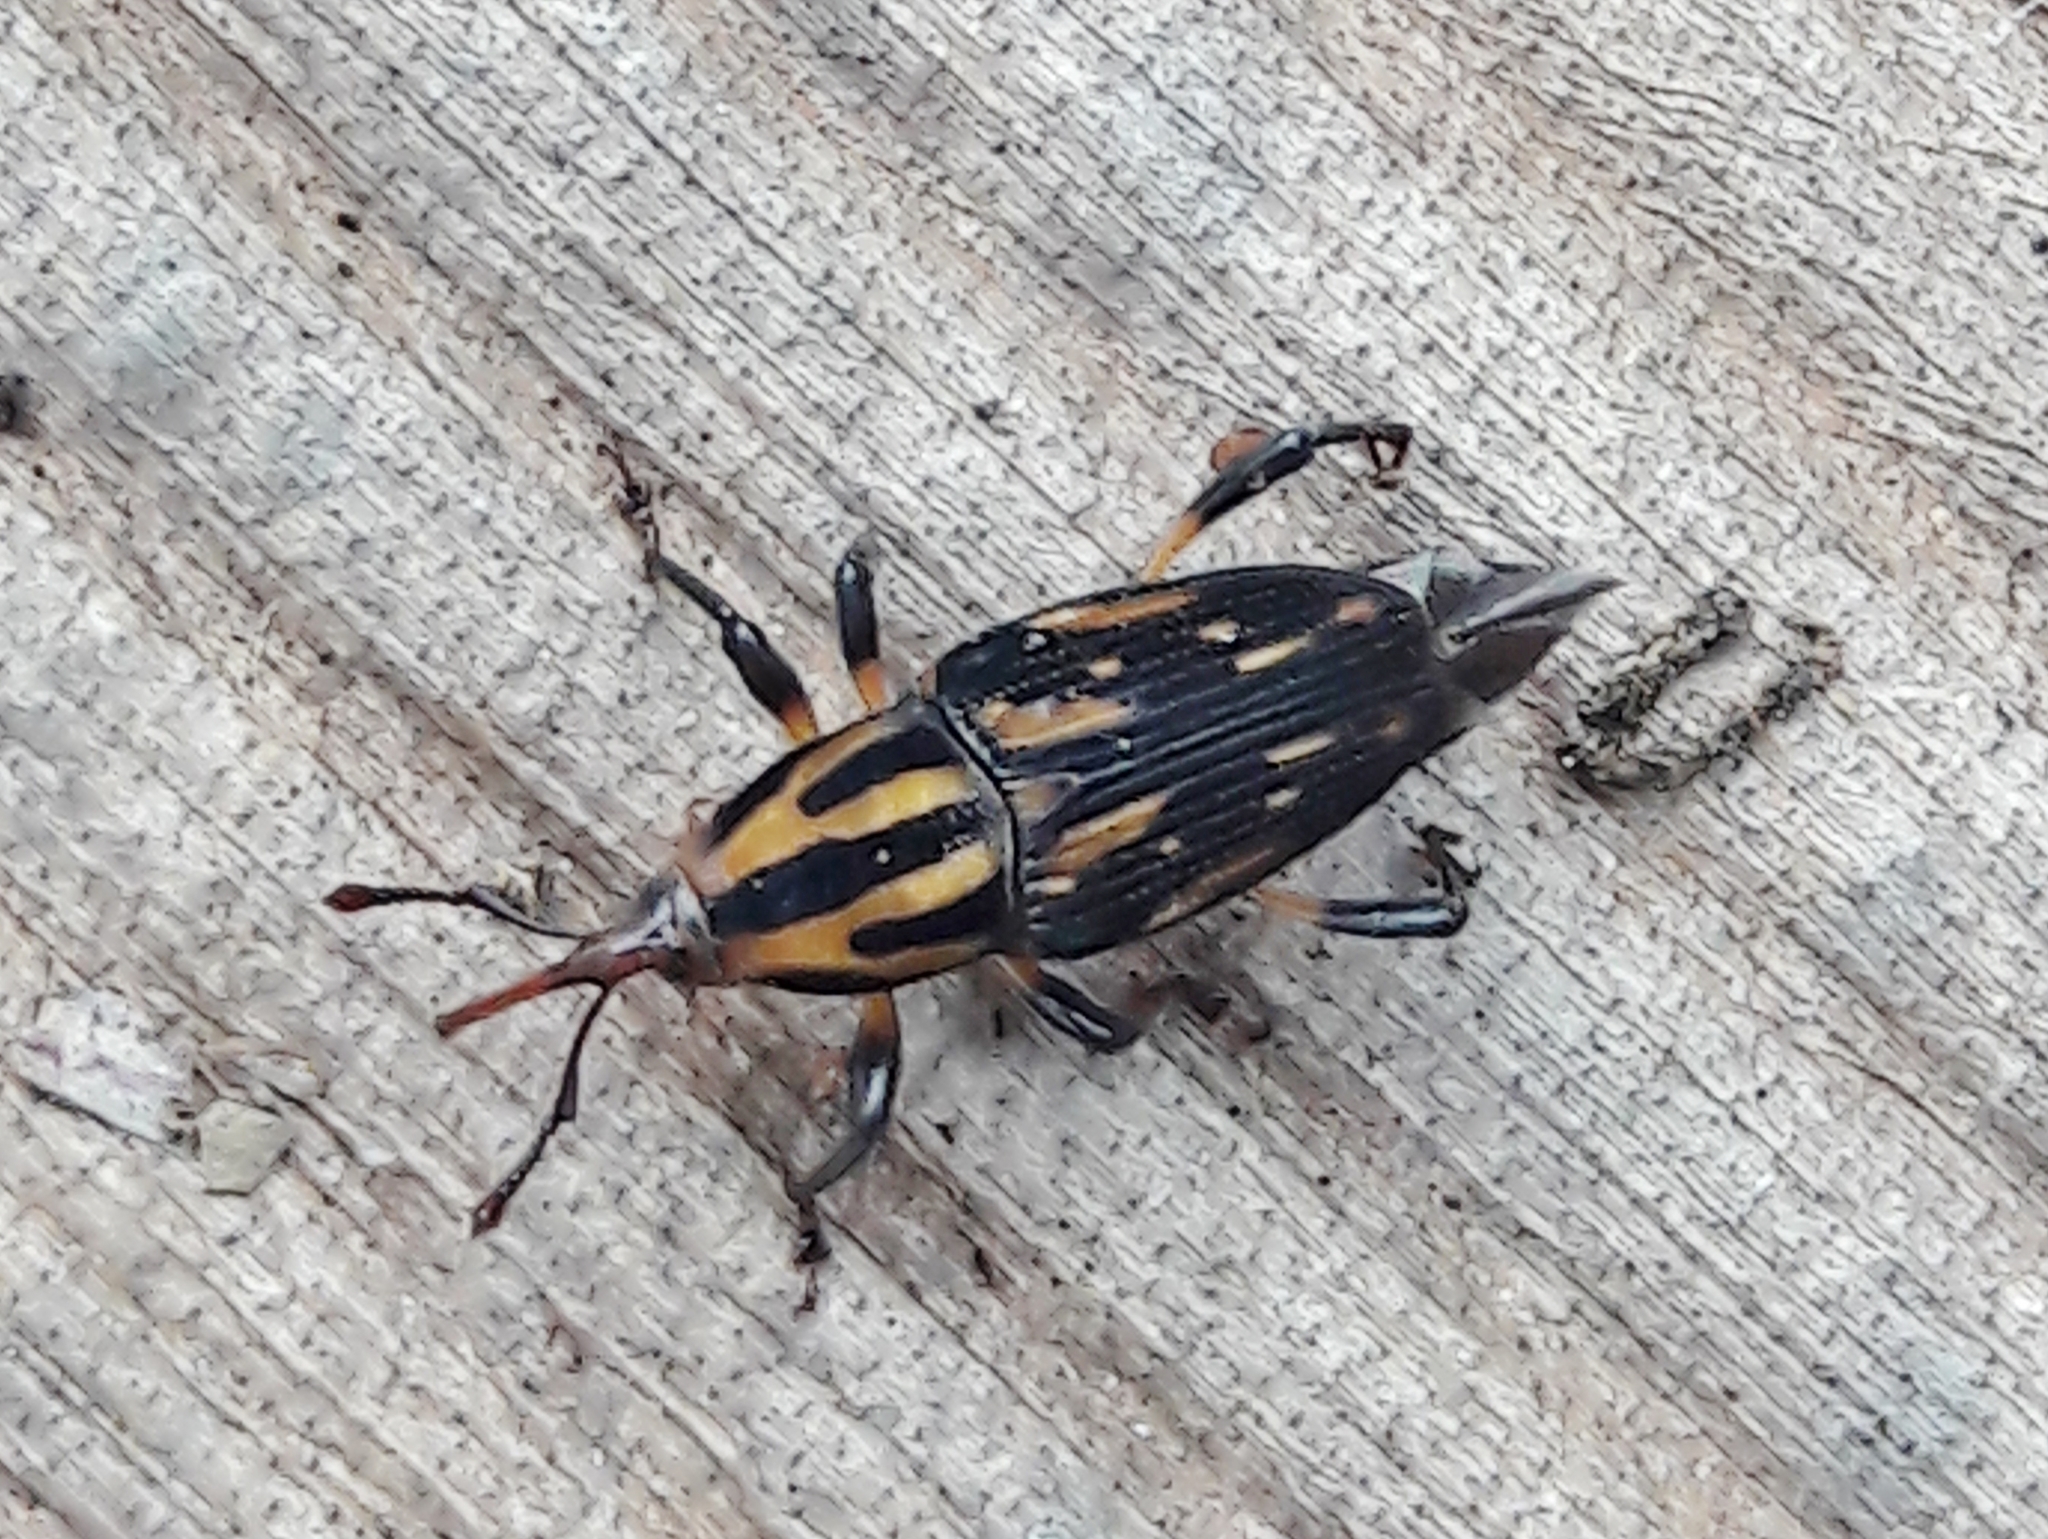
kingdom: Animalia
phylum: Arthropoda
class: Insecta
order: Coleoptera
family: Dryophthoridae
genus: Metamasius
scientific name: Metamasius hemipterus
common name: Weevil
